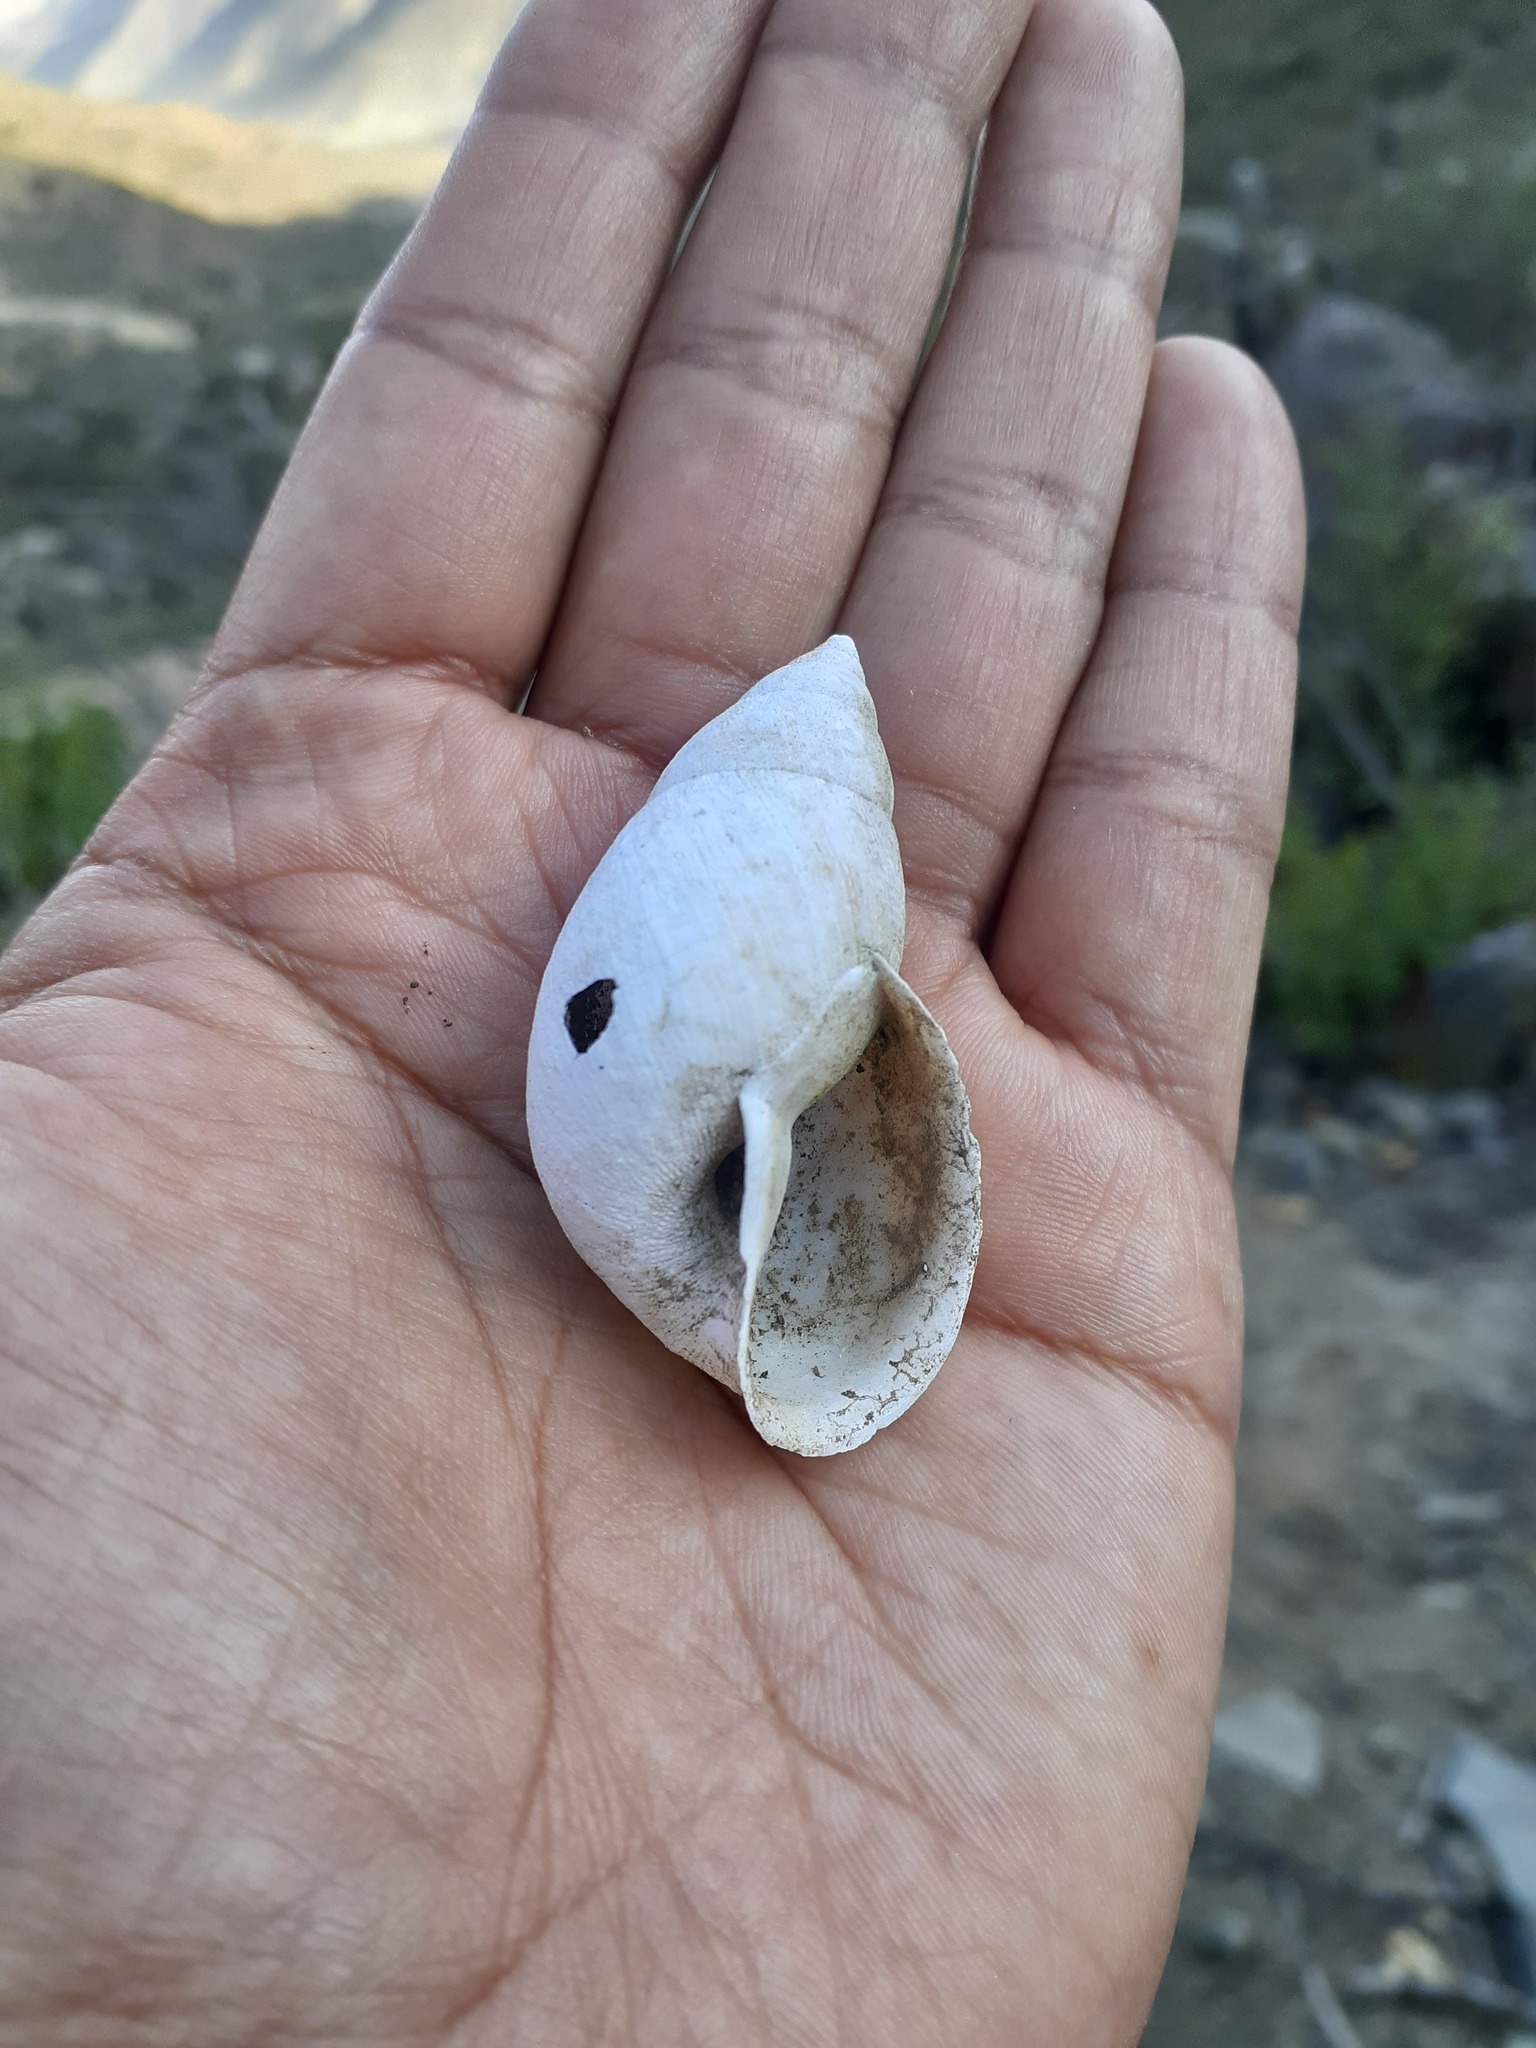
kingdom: Animalia
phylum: Mollusca
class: Gastropoda
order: Stylommatophora
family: Bulimulidae
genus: Scutalus
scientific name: Scutalus versicolor
